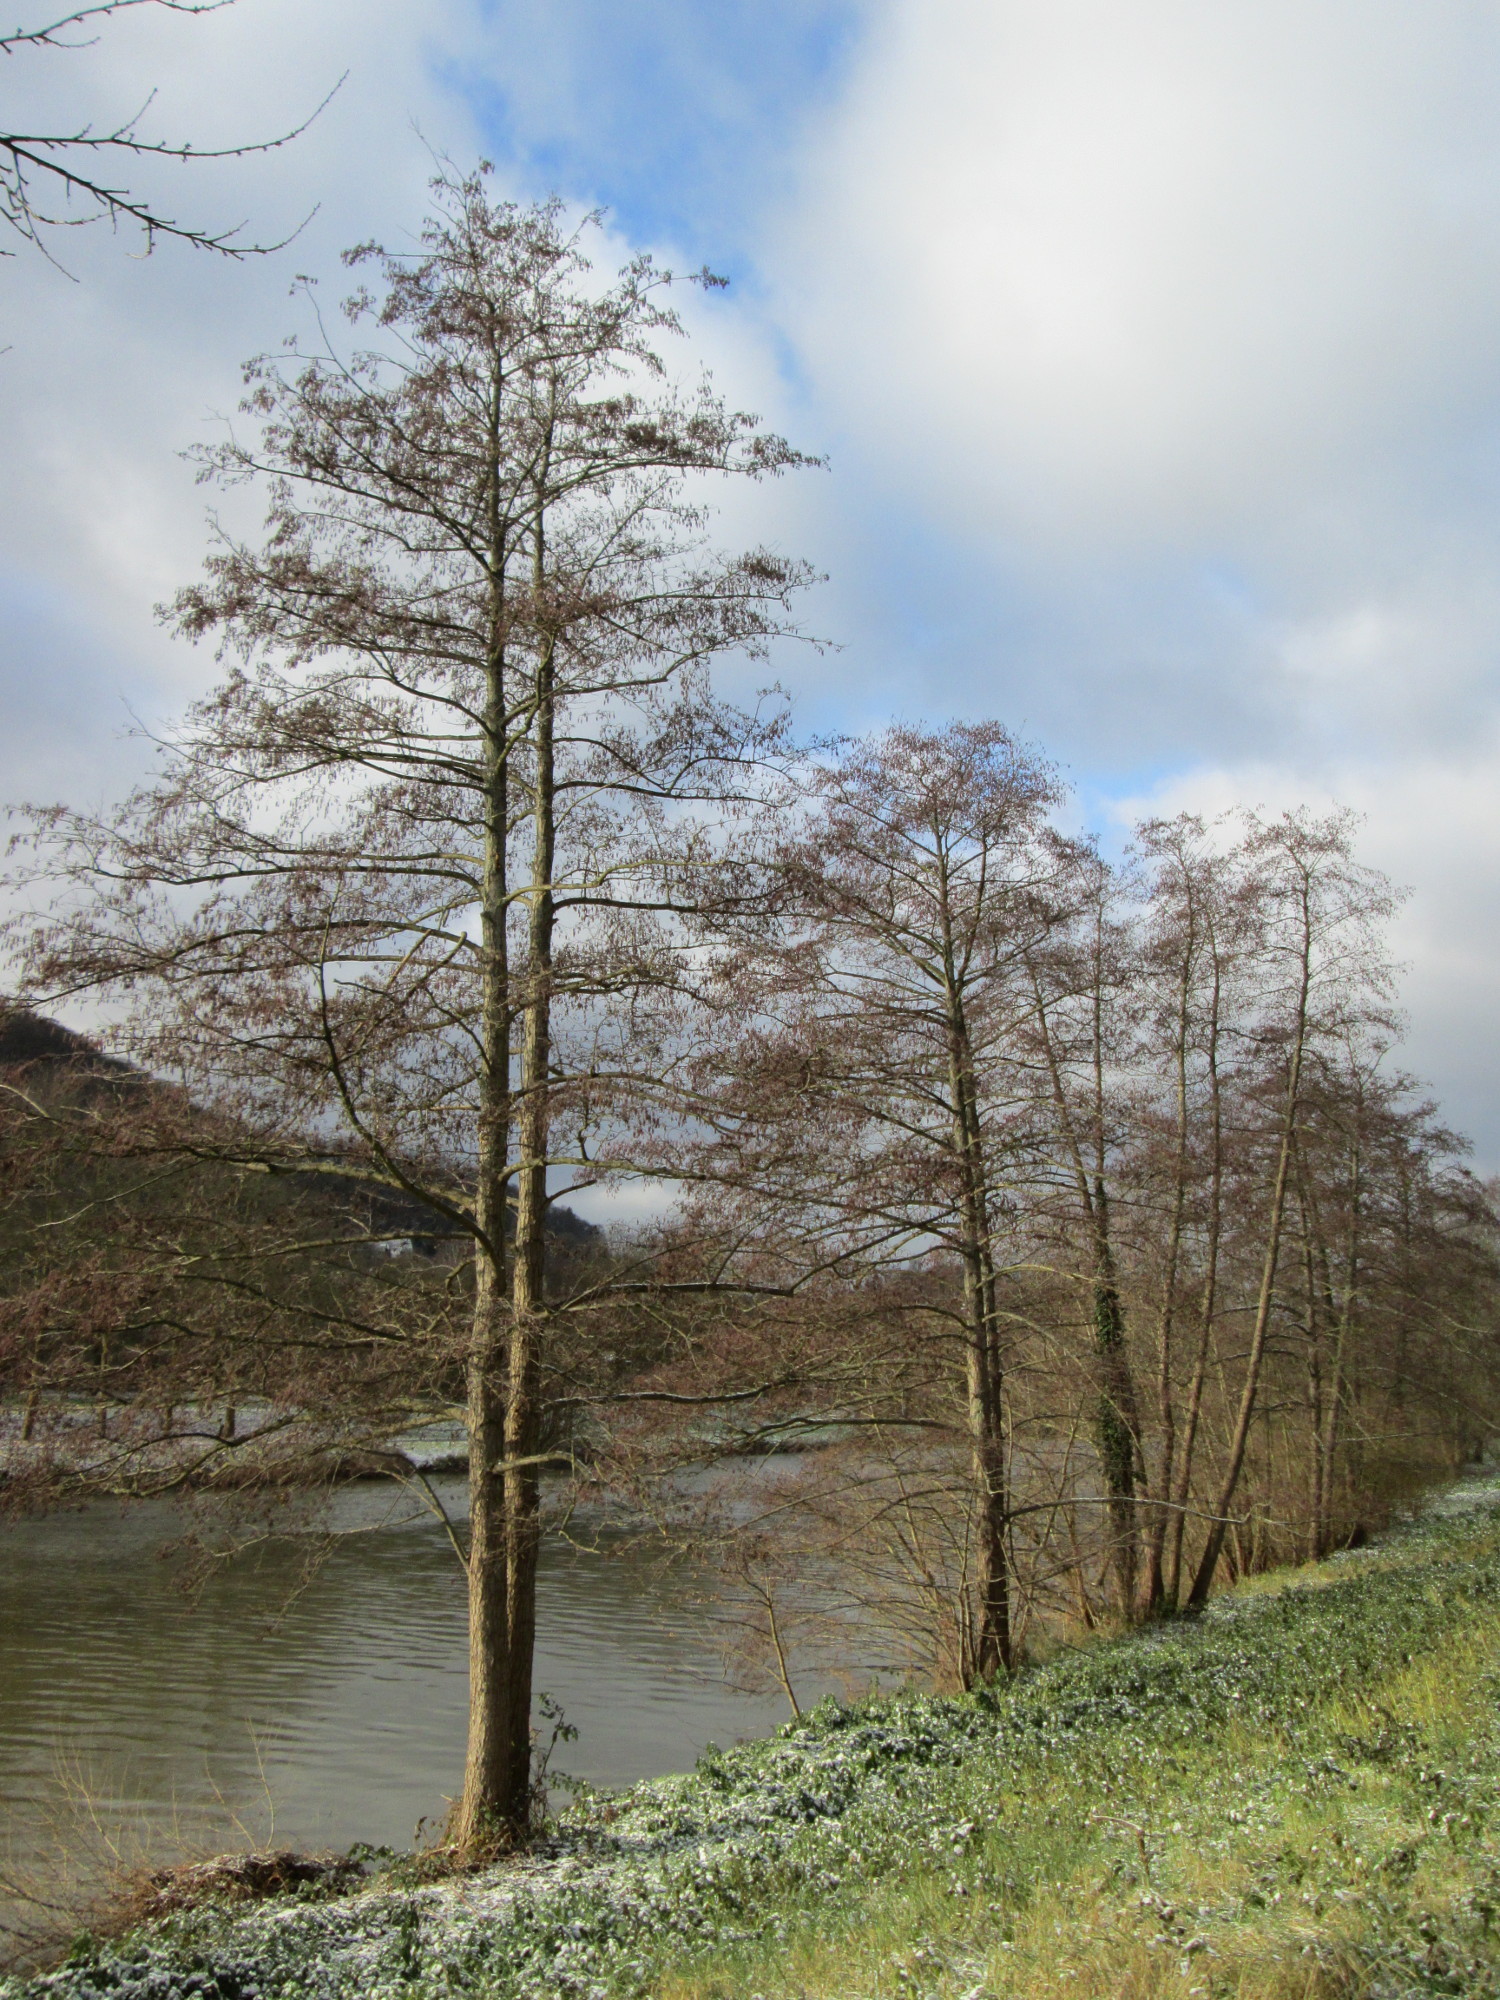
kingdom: Plantae
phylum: Tracheophyta
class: Magnoliopsida
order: Fagales
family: Betulaceae
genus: Alnus
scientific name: Alnus glutinosa
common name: Black alder
